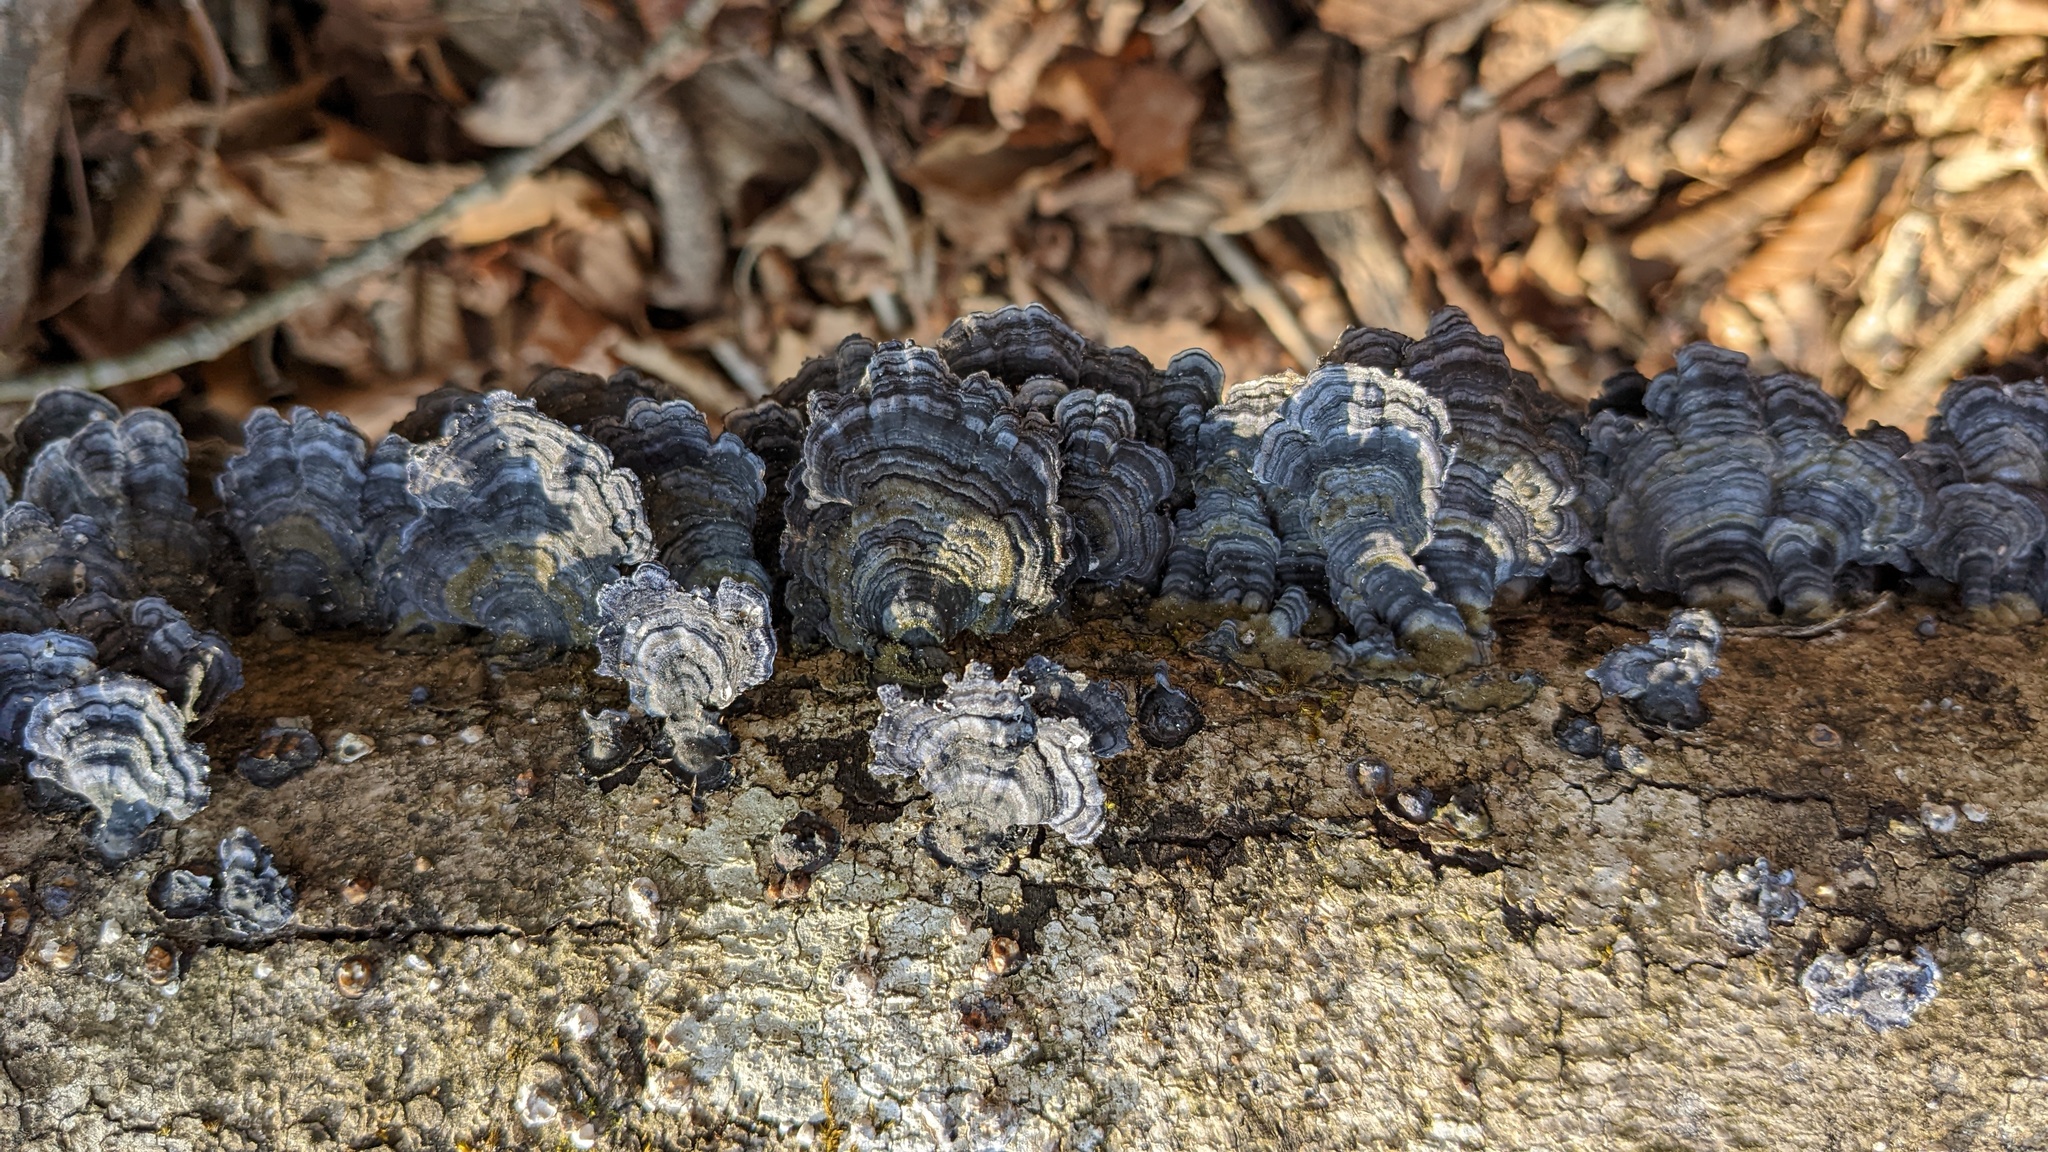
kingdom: Fungi
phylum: Basidiomycota
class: Agaricomycetes
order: Polyporales
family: Polyporaceae
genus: Trametes
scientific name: Trametes versicolor
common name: Turkeytail
